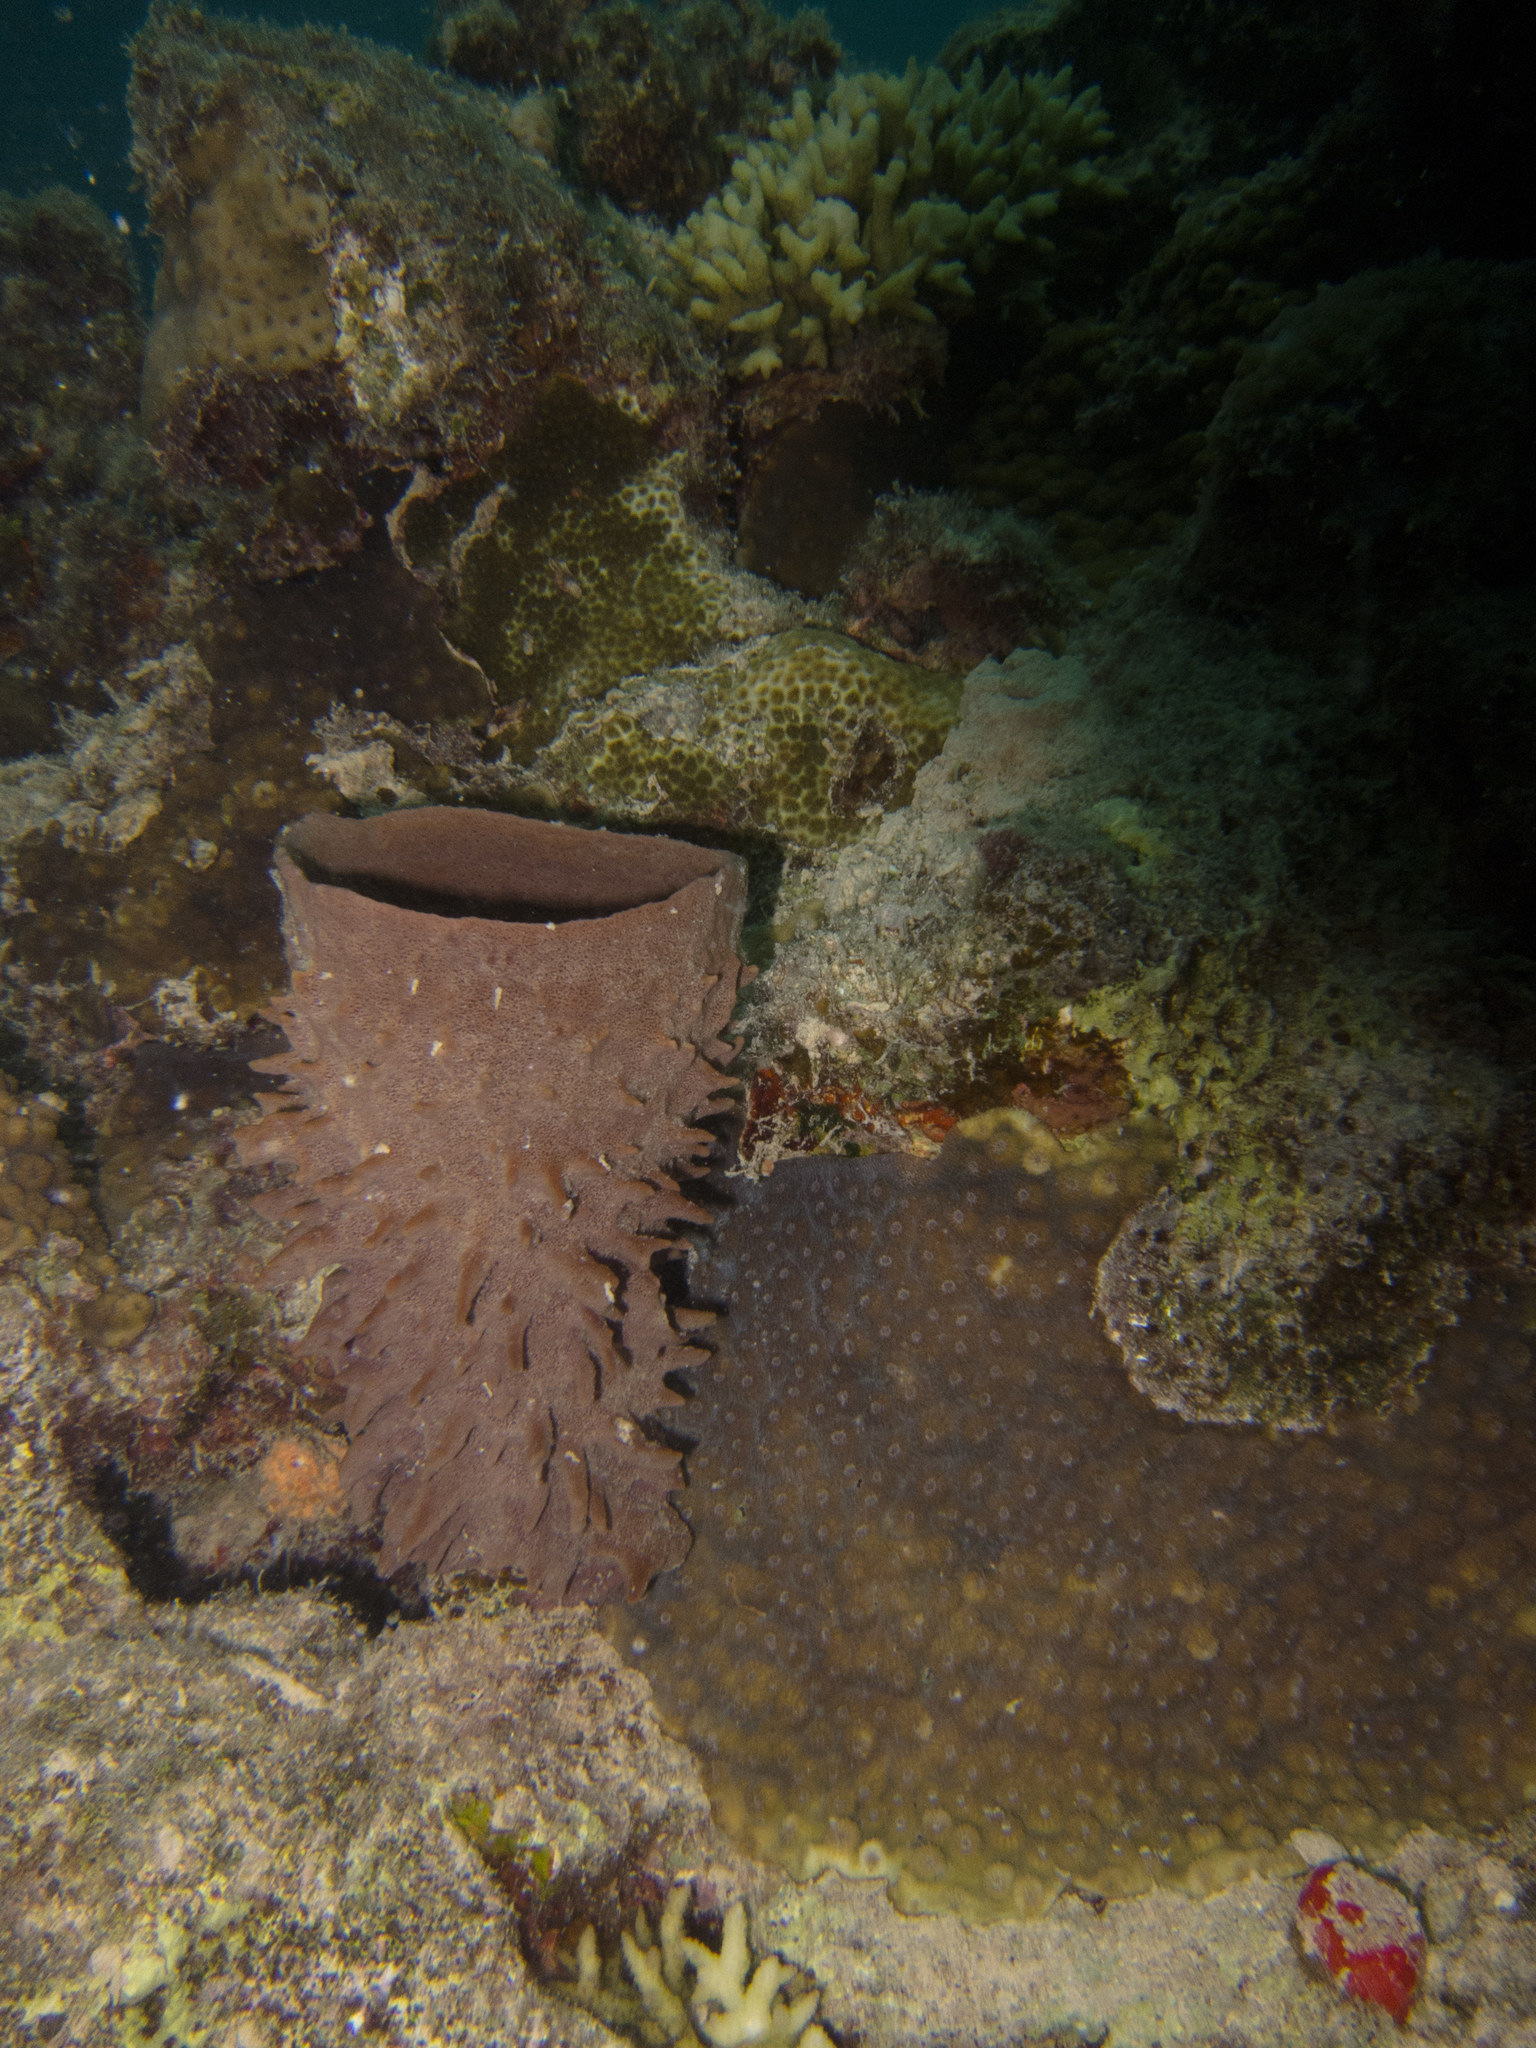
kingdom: Animalia
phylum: Porifera
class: Demospongiae
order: Haplosclerida
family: Callyspongiidae
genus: Callyspongia
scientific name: Callyspongia crassa
